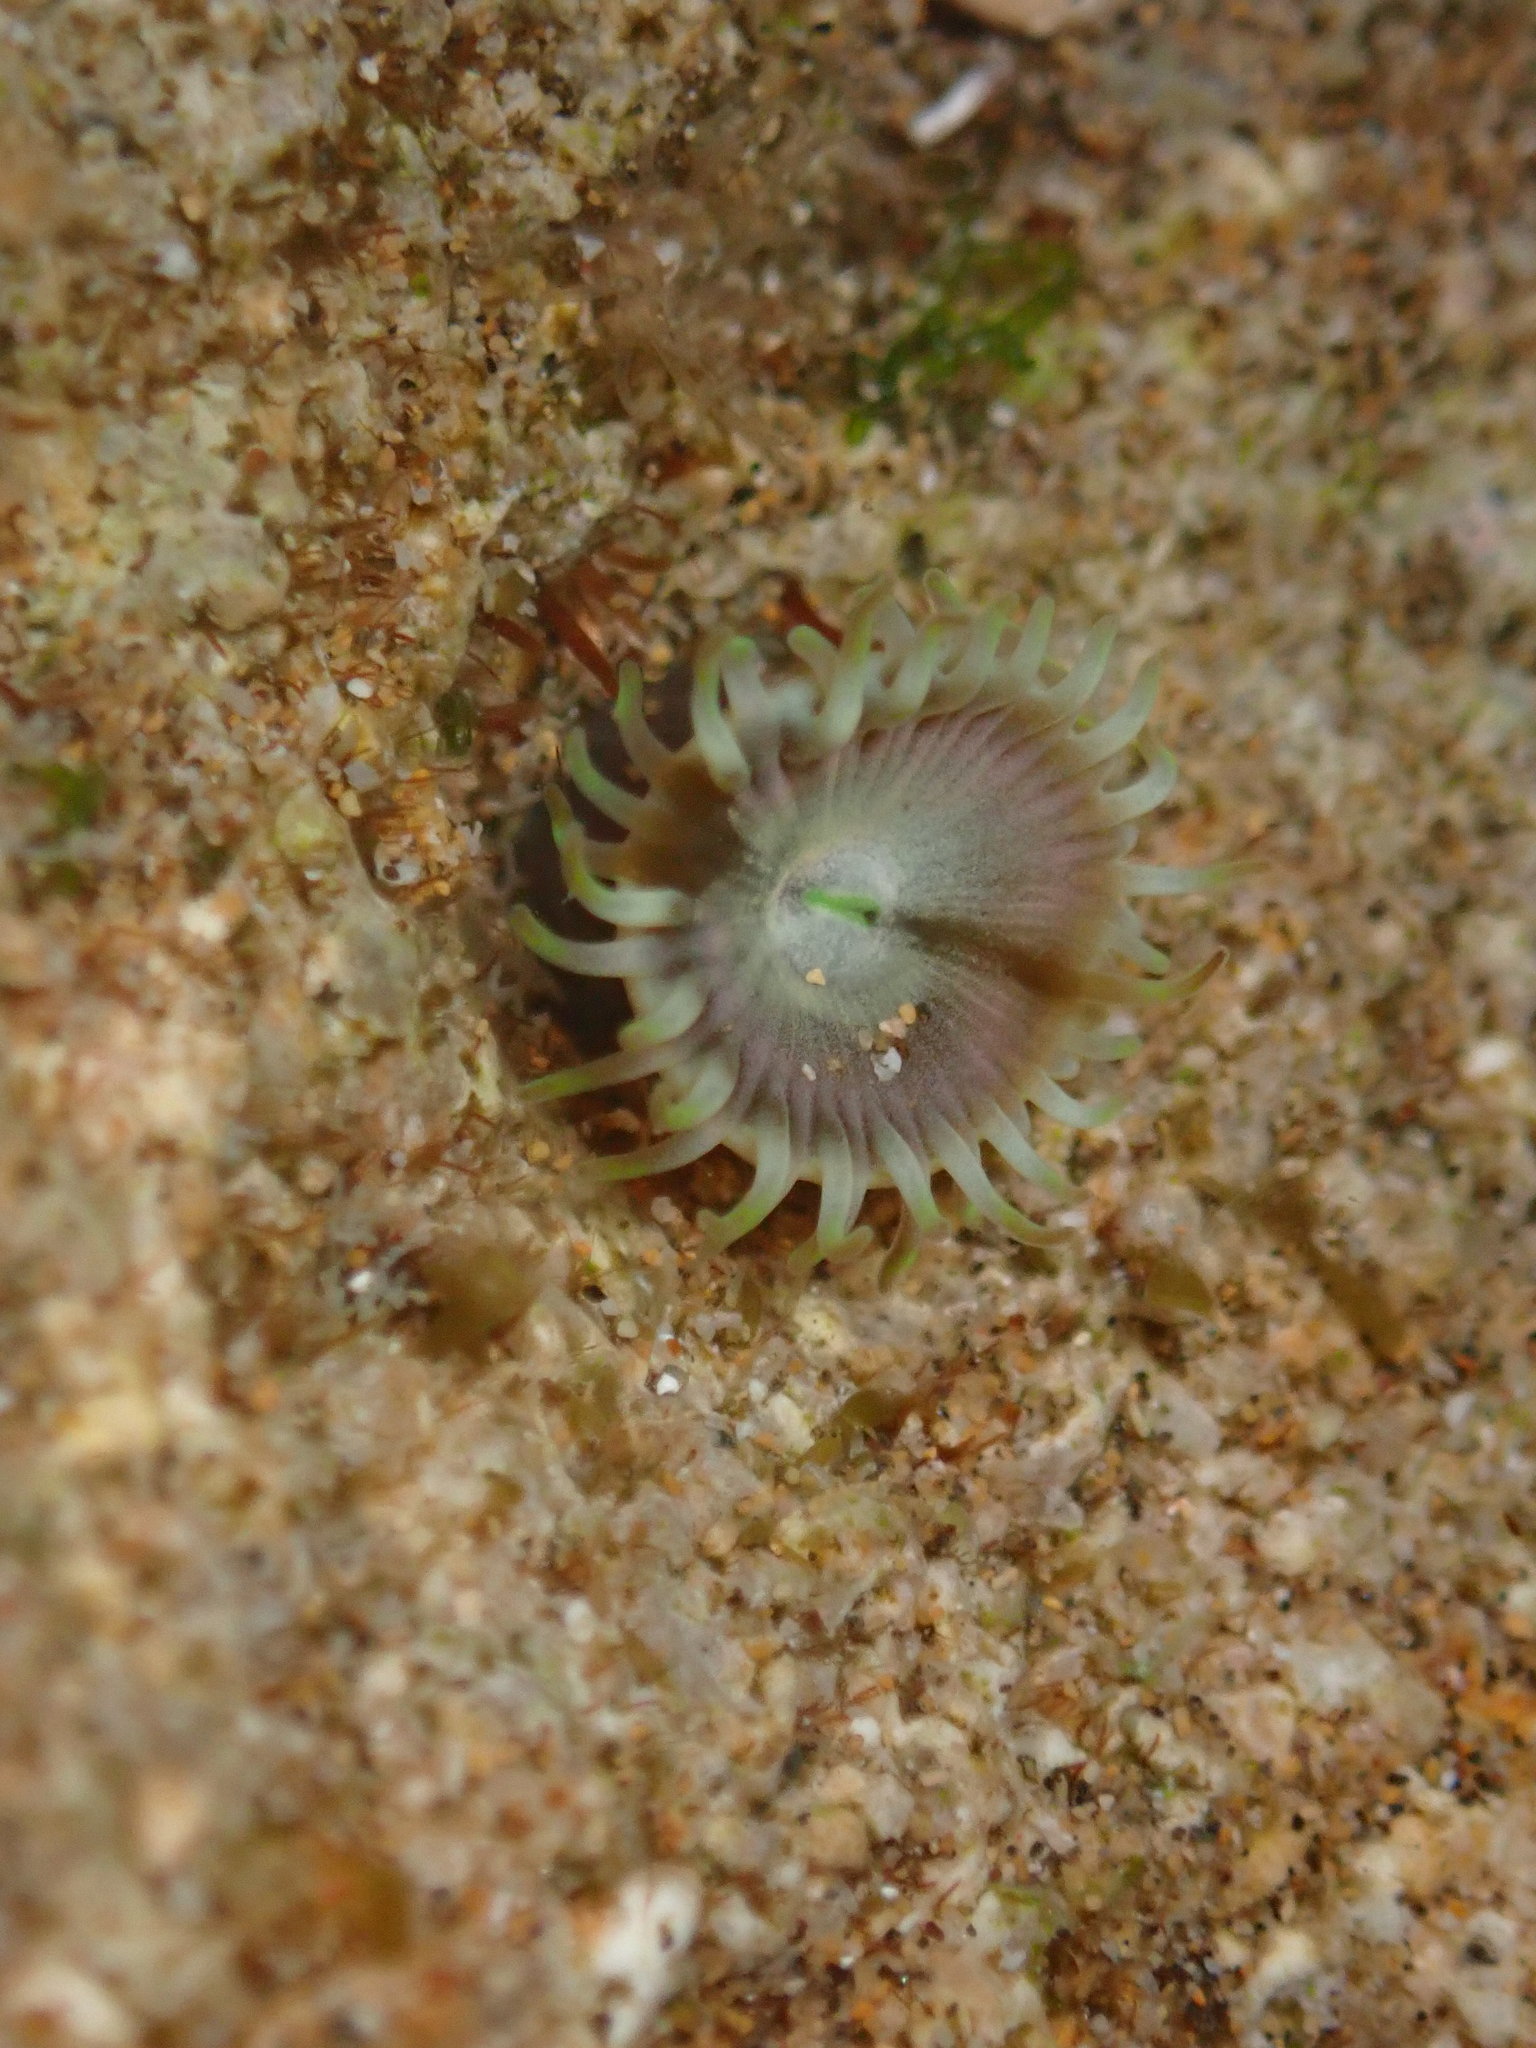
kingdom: Animalia
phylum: Cnidaria
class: Anthozoa
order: Zoantharia
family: Zoanthidae
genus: Zoanthus
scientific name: Zoanthus gigantus
